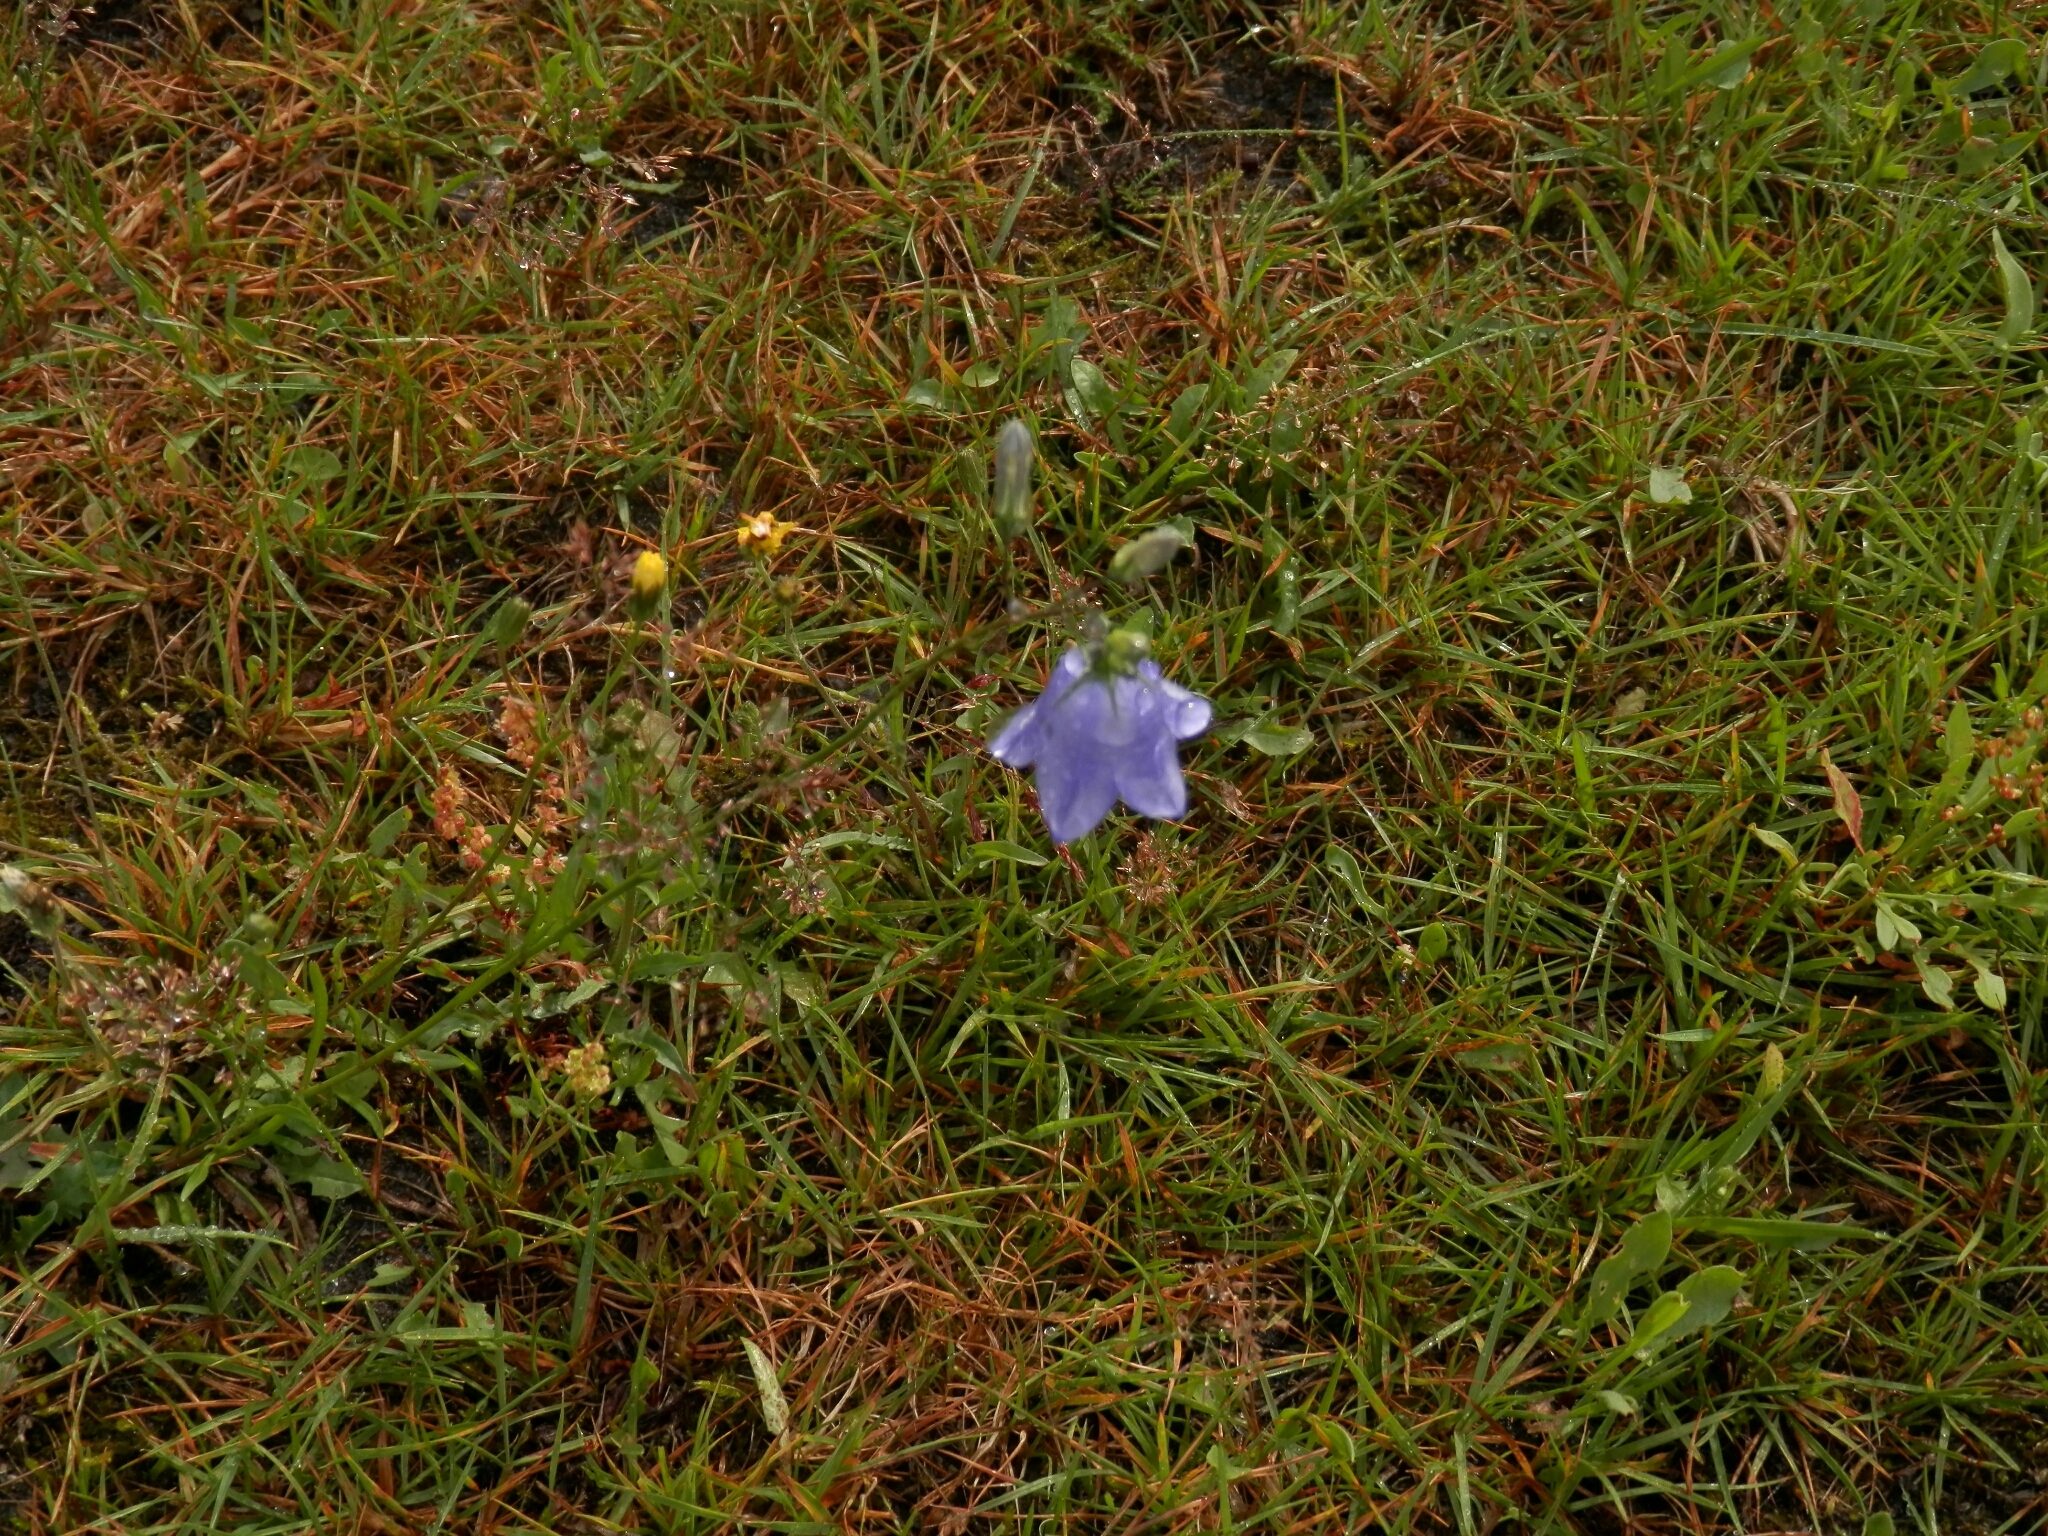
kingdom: Plantae
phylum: Tracheophyta
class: Magnoliopsida
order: Asterales
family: Campanulaceae
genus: Campanula
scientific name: Campanula rotundifolia
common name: Harebell
